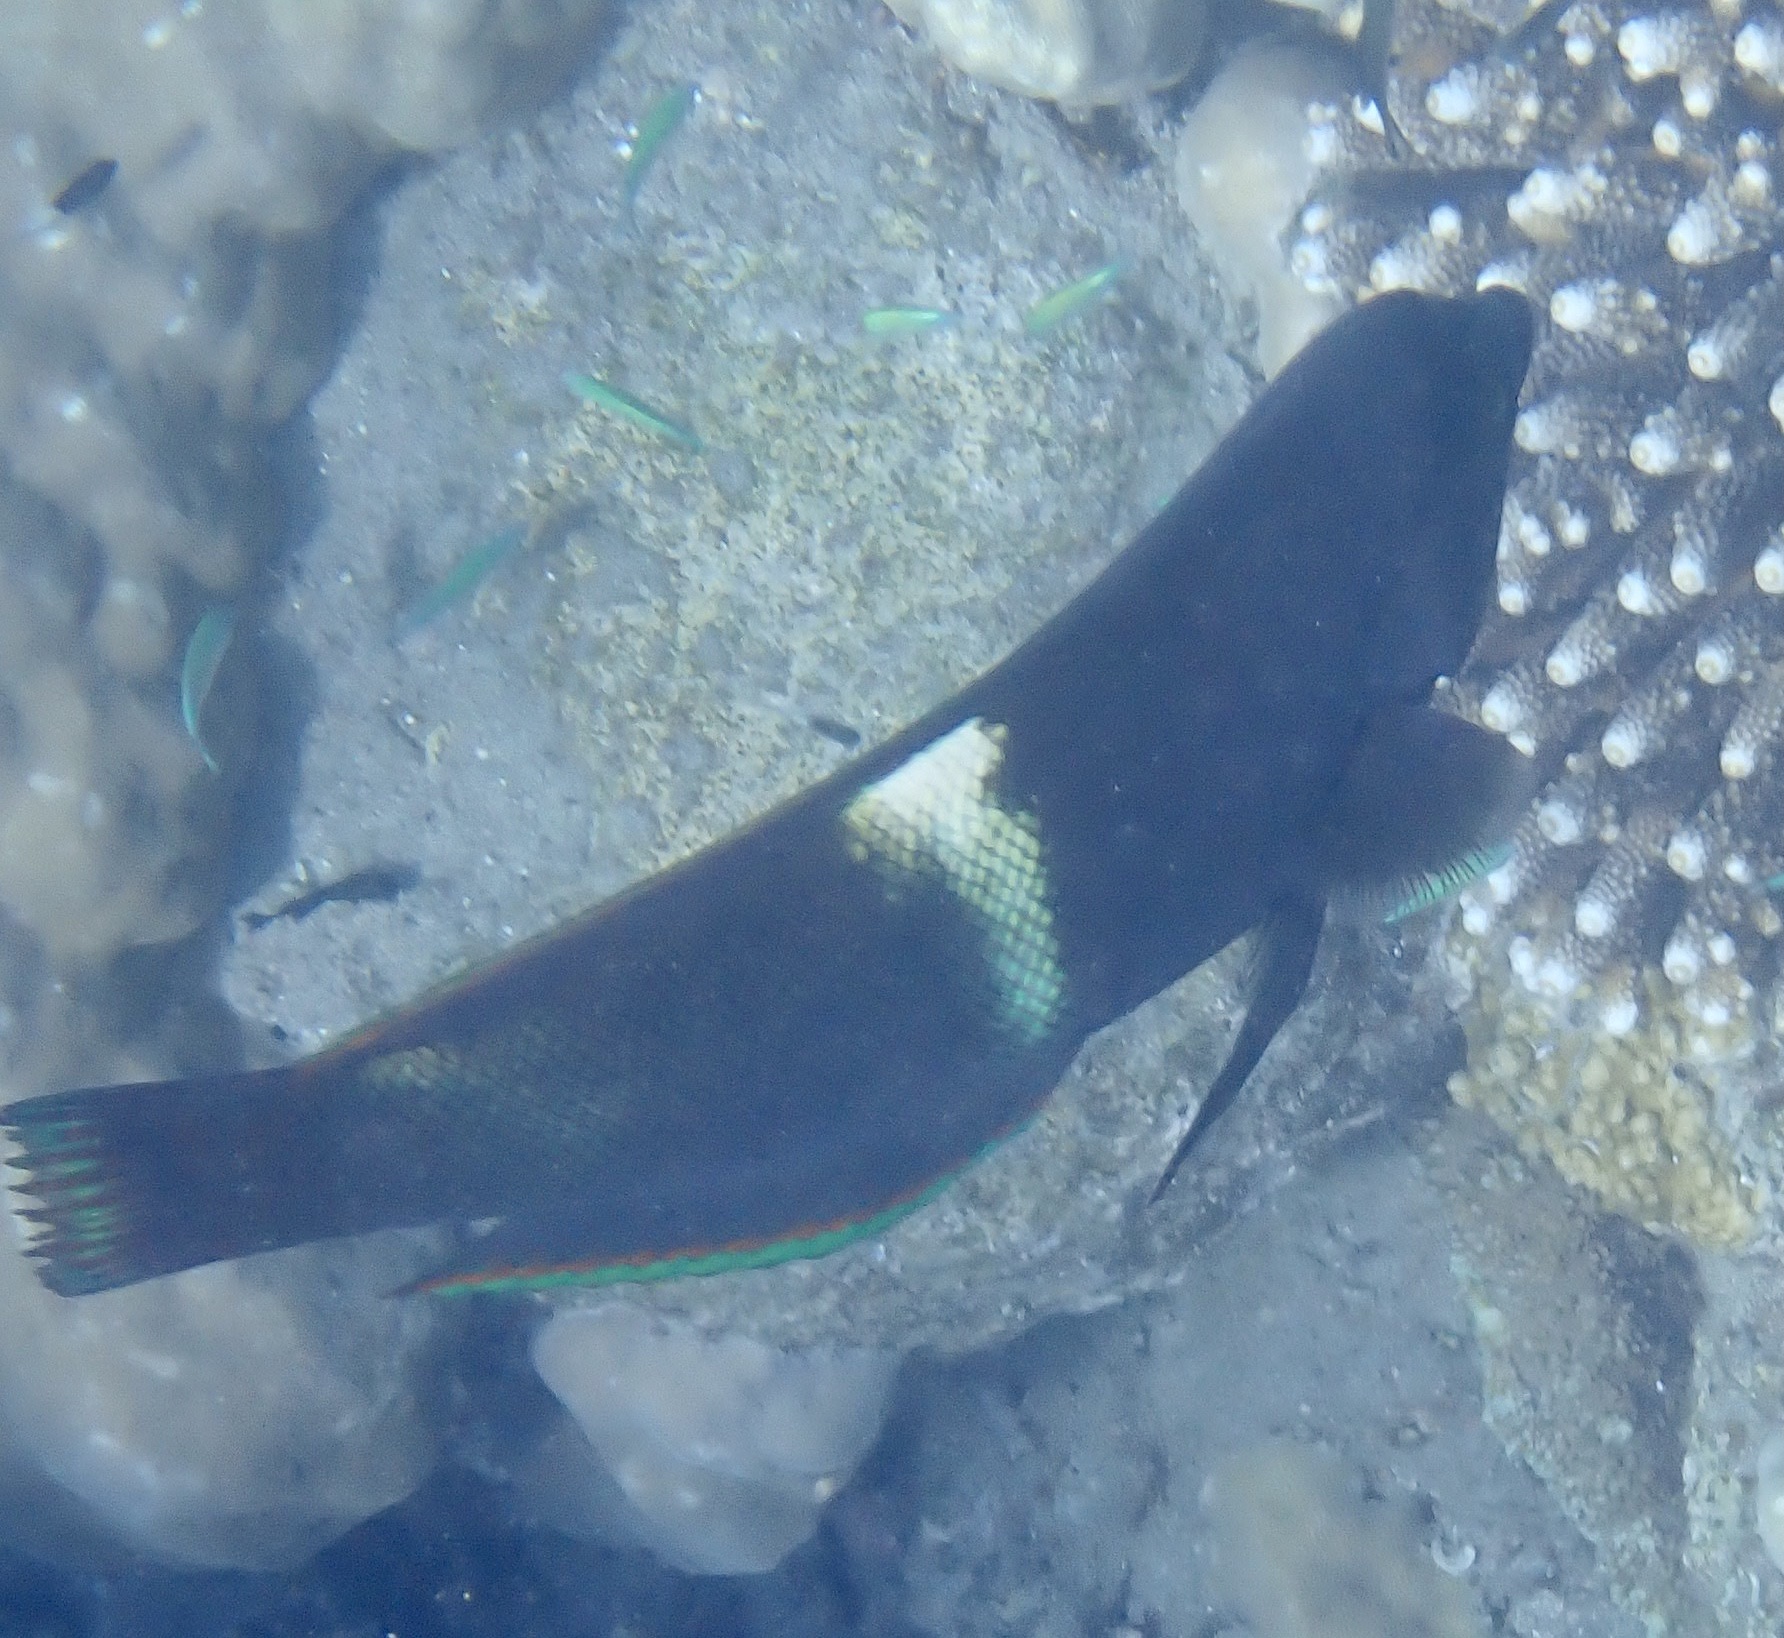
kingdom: Animalia
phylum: Chordata
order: Perciformes
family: Labridae
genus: Coris
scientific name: Coris aygula
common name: Clown coris
